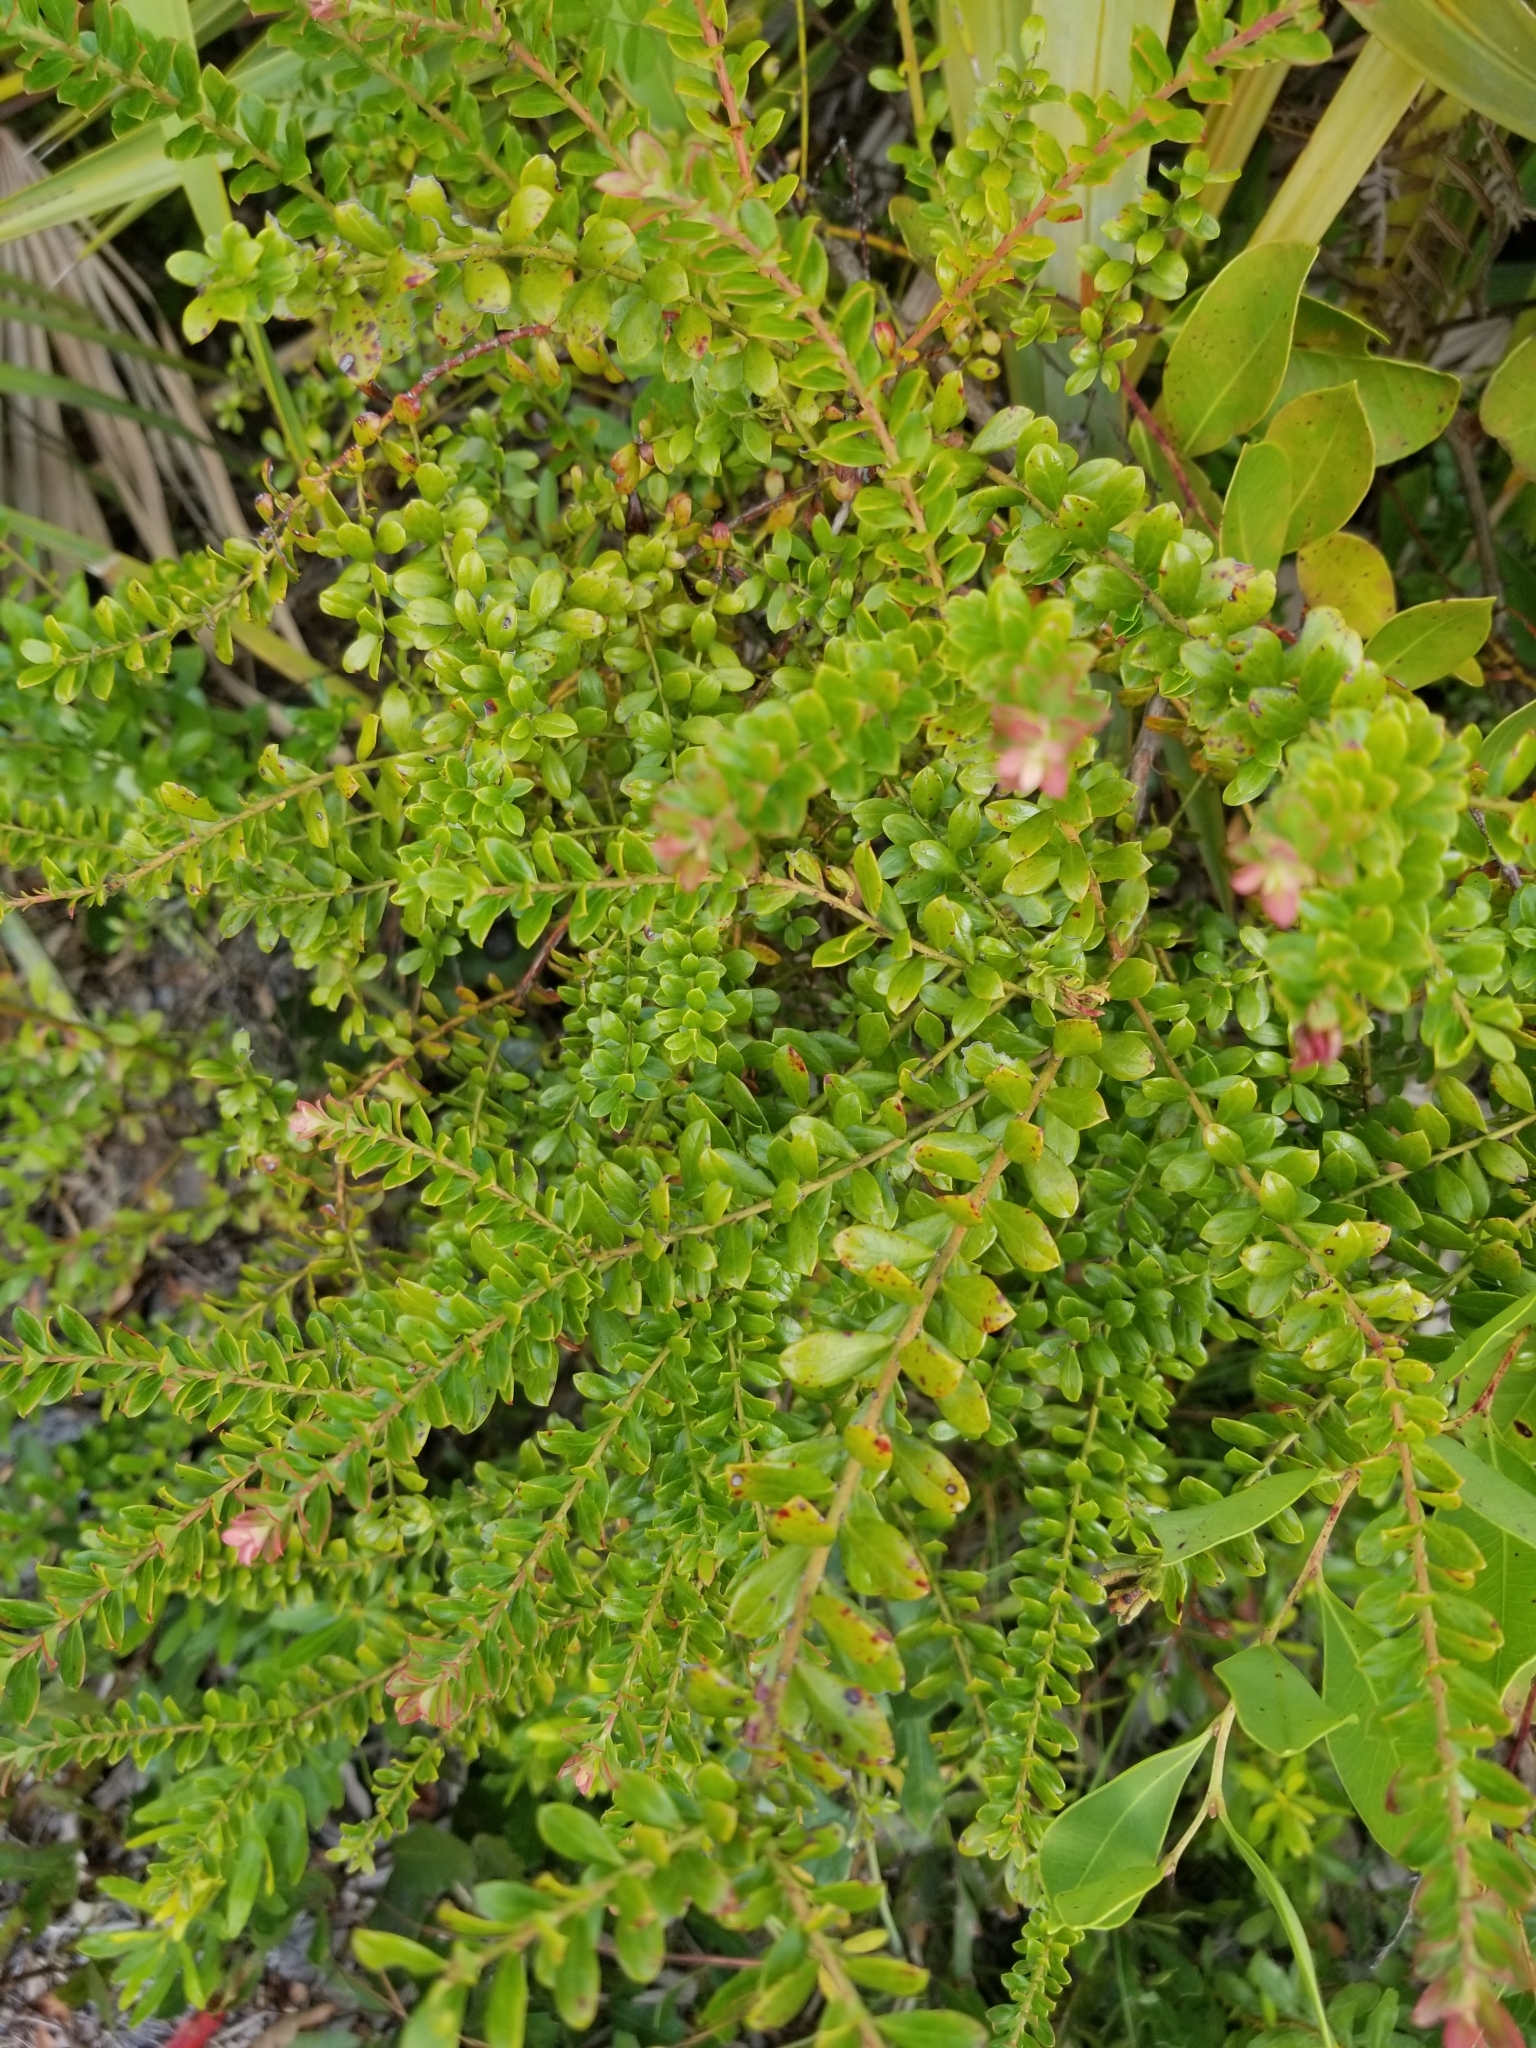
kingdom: Plantae
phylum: Tracheophyta
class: Magnoliopsida
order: Ericales
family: Ericaceae
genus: Vaccinium
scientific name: Vaccinium myrsinites
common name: Evergreen blueberry
